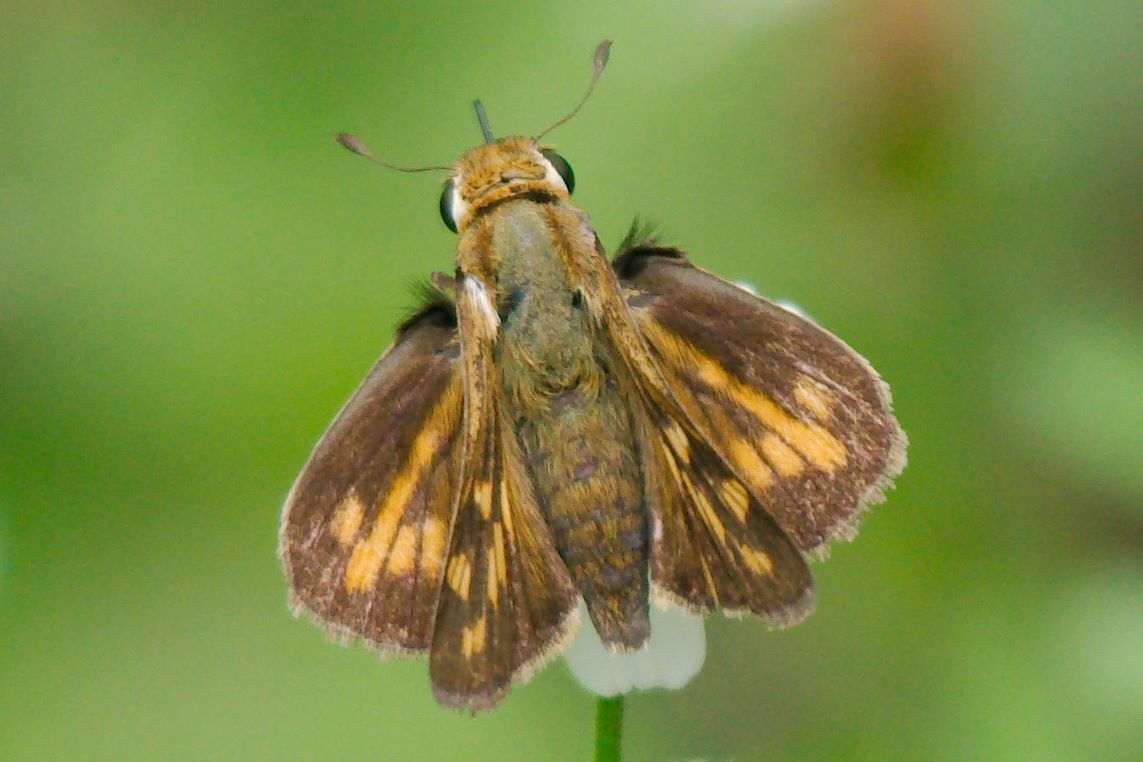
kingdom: Animalia
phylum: Arthropoda
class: Insecta
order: Lepidoptera
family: Hesperiidae
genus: Hylephila
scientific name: Hylephila phyleus
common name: Fiery skipper
